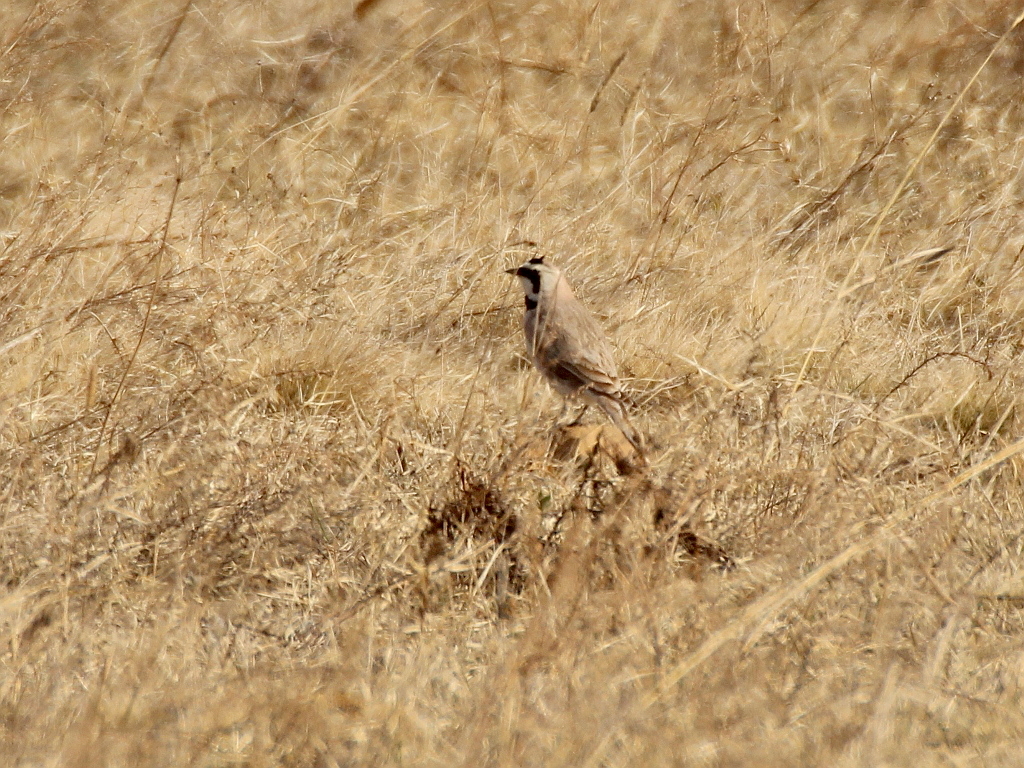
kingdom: Animalia
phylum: Chordata
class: Aves
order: Passeriformes
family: Alaudidae
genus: Eremophila
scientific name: Eremophila alpestris
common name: Horned lark
